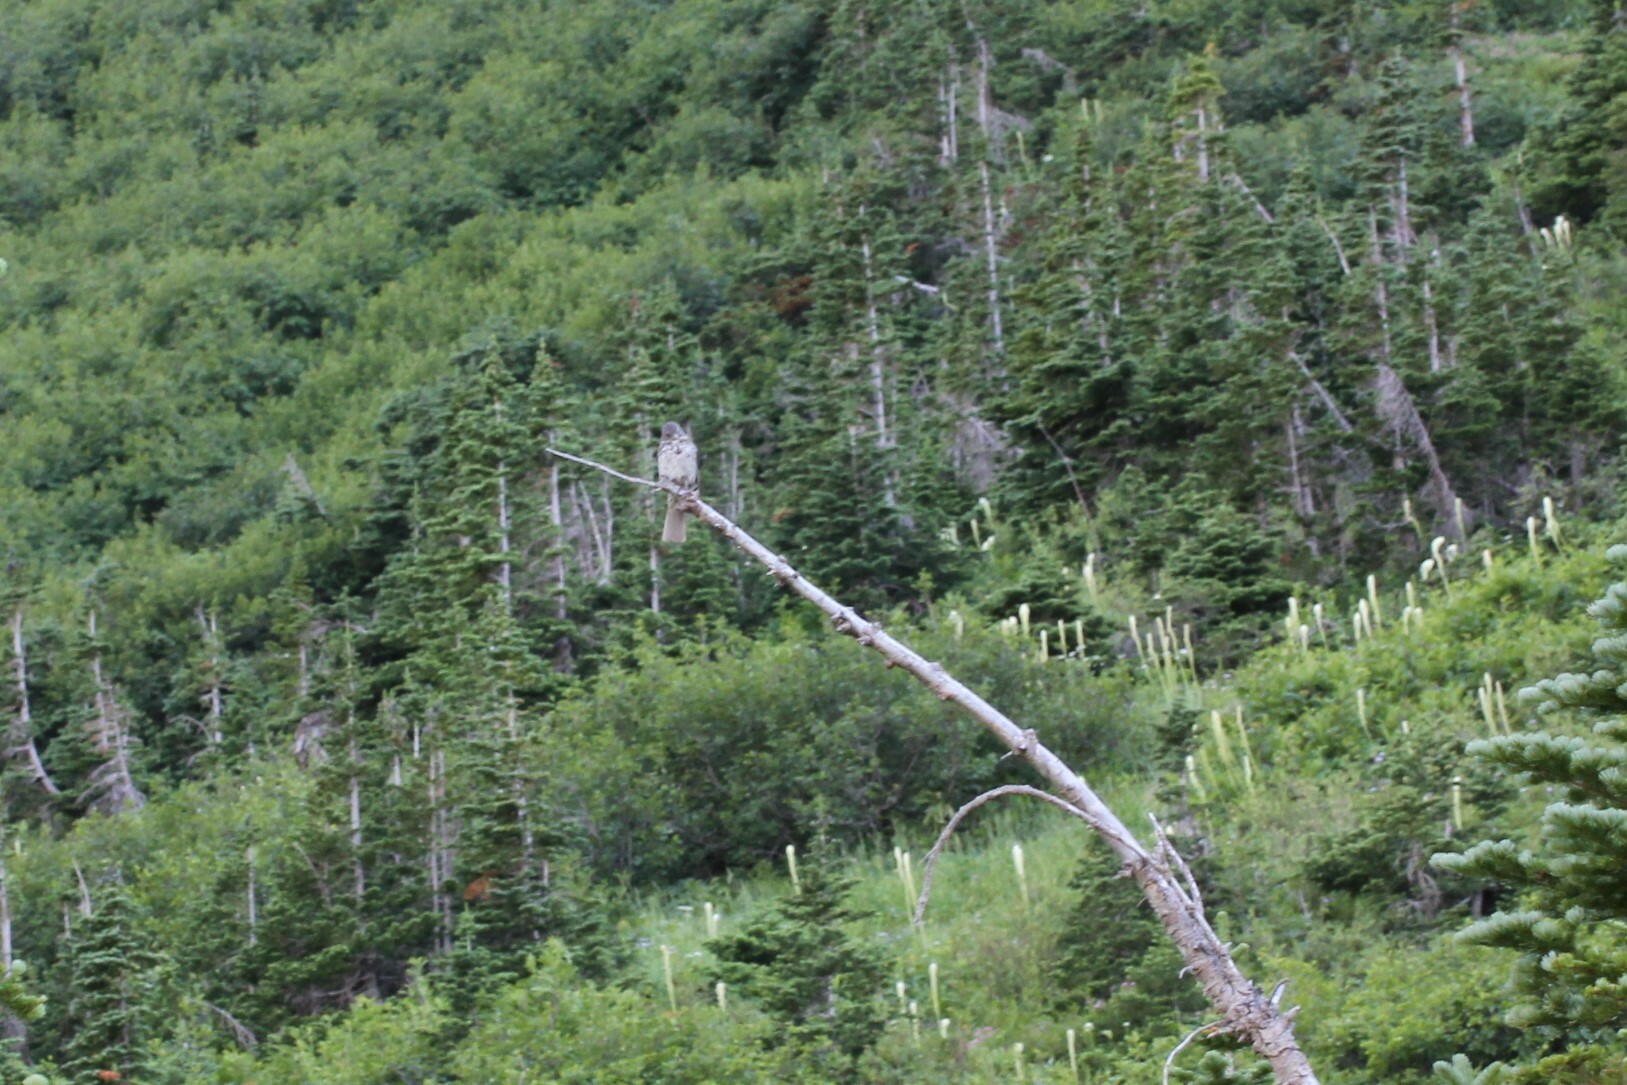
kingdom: Animalia
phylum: Chordata
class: Aves
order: Passeriformes
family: Passerellidae
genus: Passerella
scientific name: Passerella iliaca
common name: Fox sparrow
